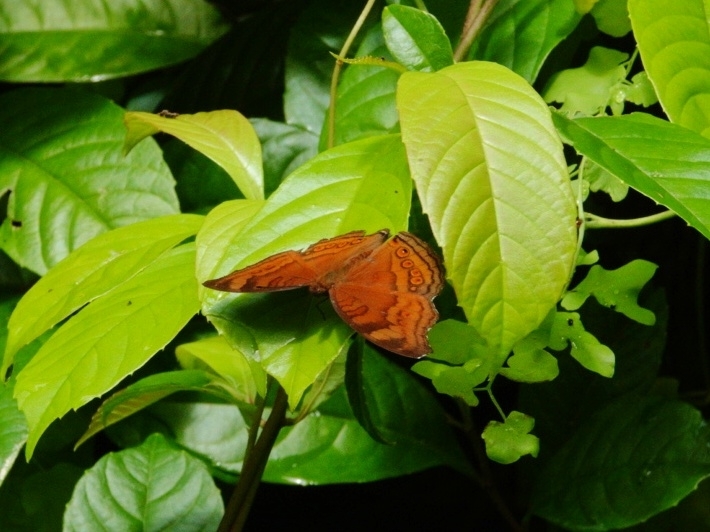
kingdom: Animalia
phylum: Arthropoda
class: Insecta
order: Lepidoptera
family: Nymphalidae
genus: Junonia
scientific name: Junonia hedonia
